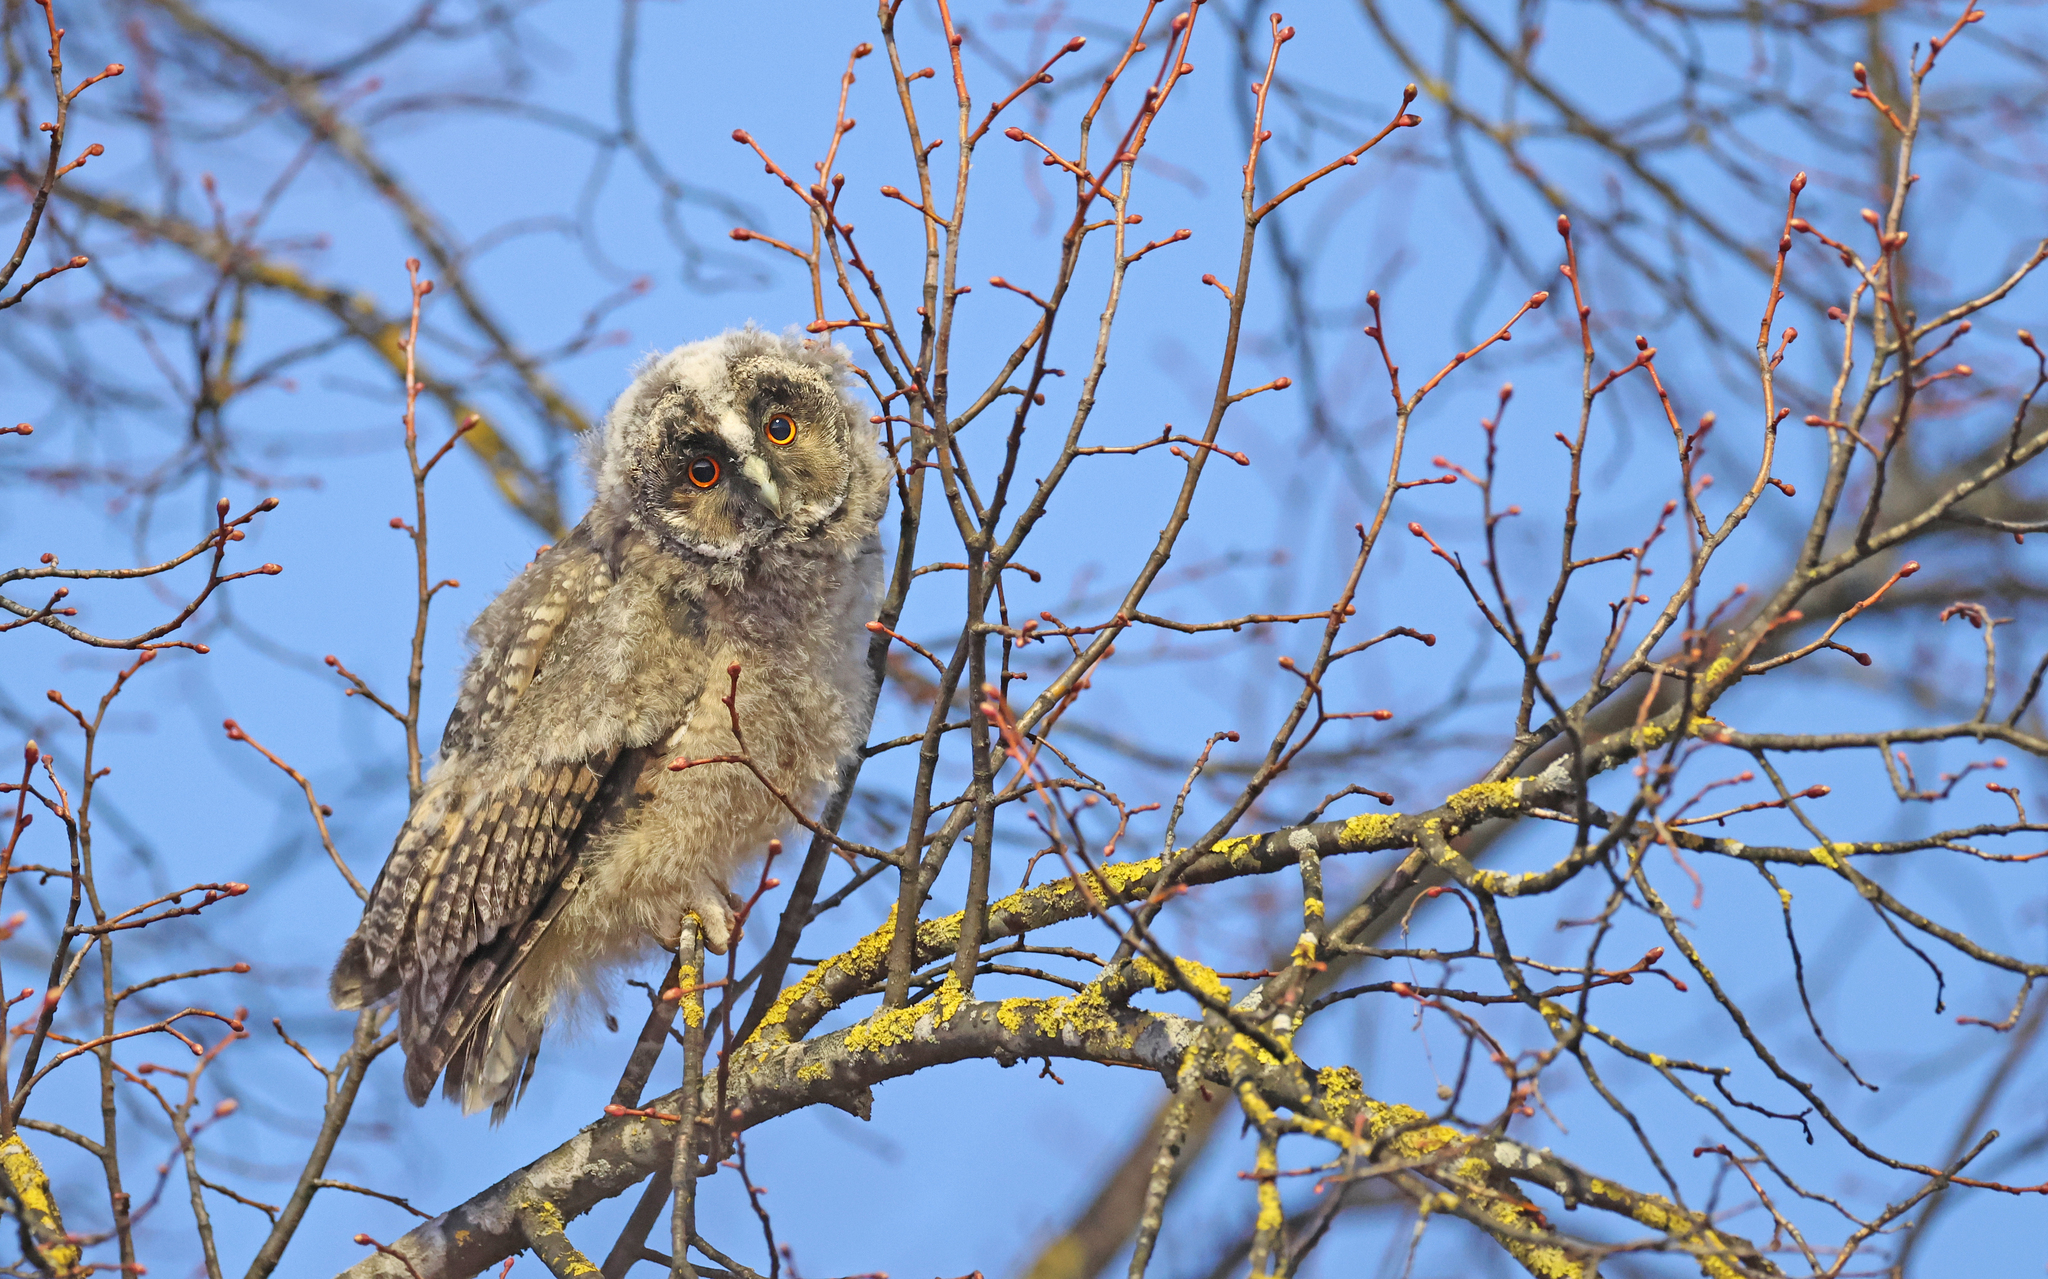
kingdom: Animalia
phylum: Chordata
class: Aves
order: Strigiformes
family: Strigidae
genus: Asio
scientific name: Asio otus
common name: Long-eared owl
